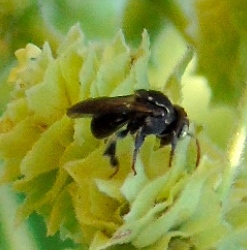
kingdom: Animalia
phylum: Arthropoda
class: Insecta
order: Hymenoptera
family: Apidae
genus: Nannotrigona
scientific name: Nannotrigona perilampoides
